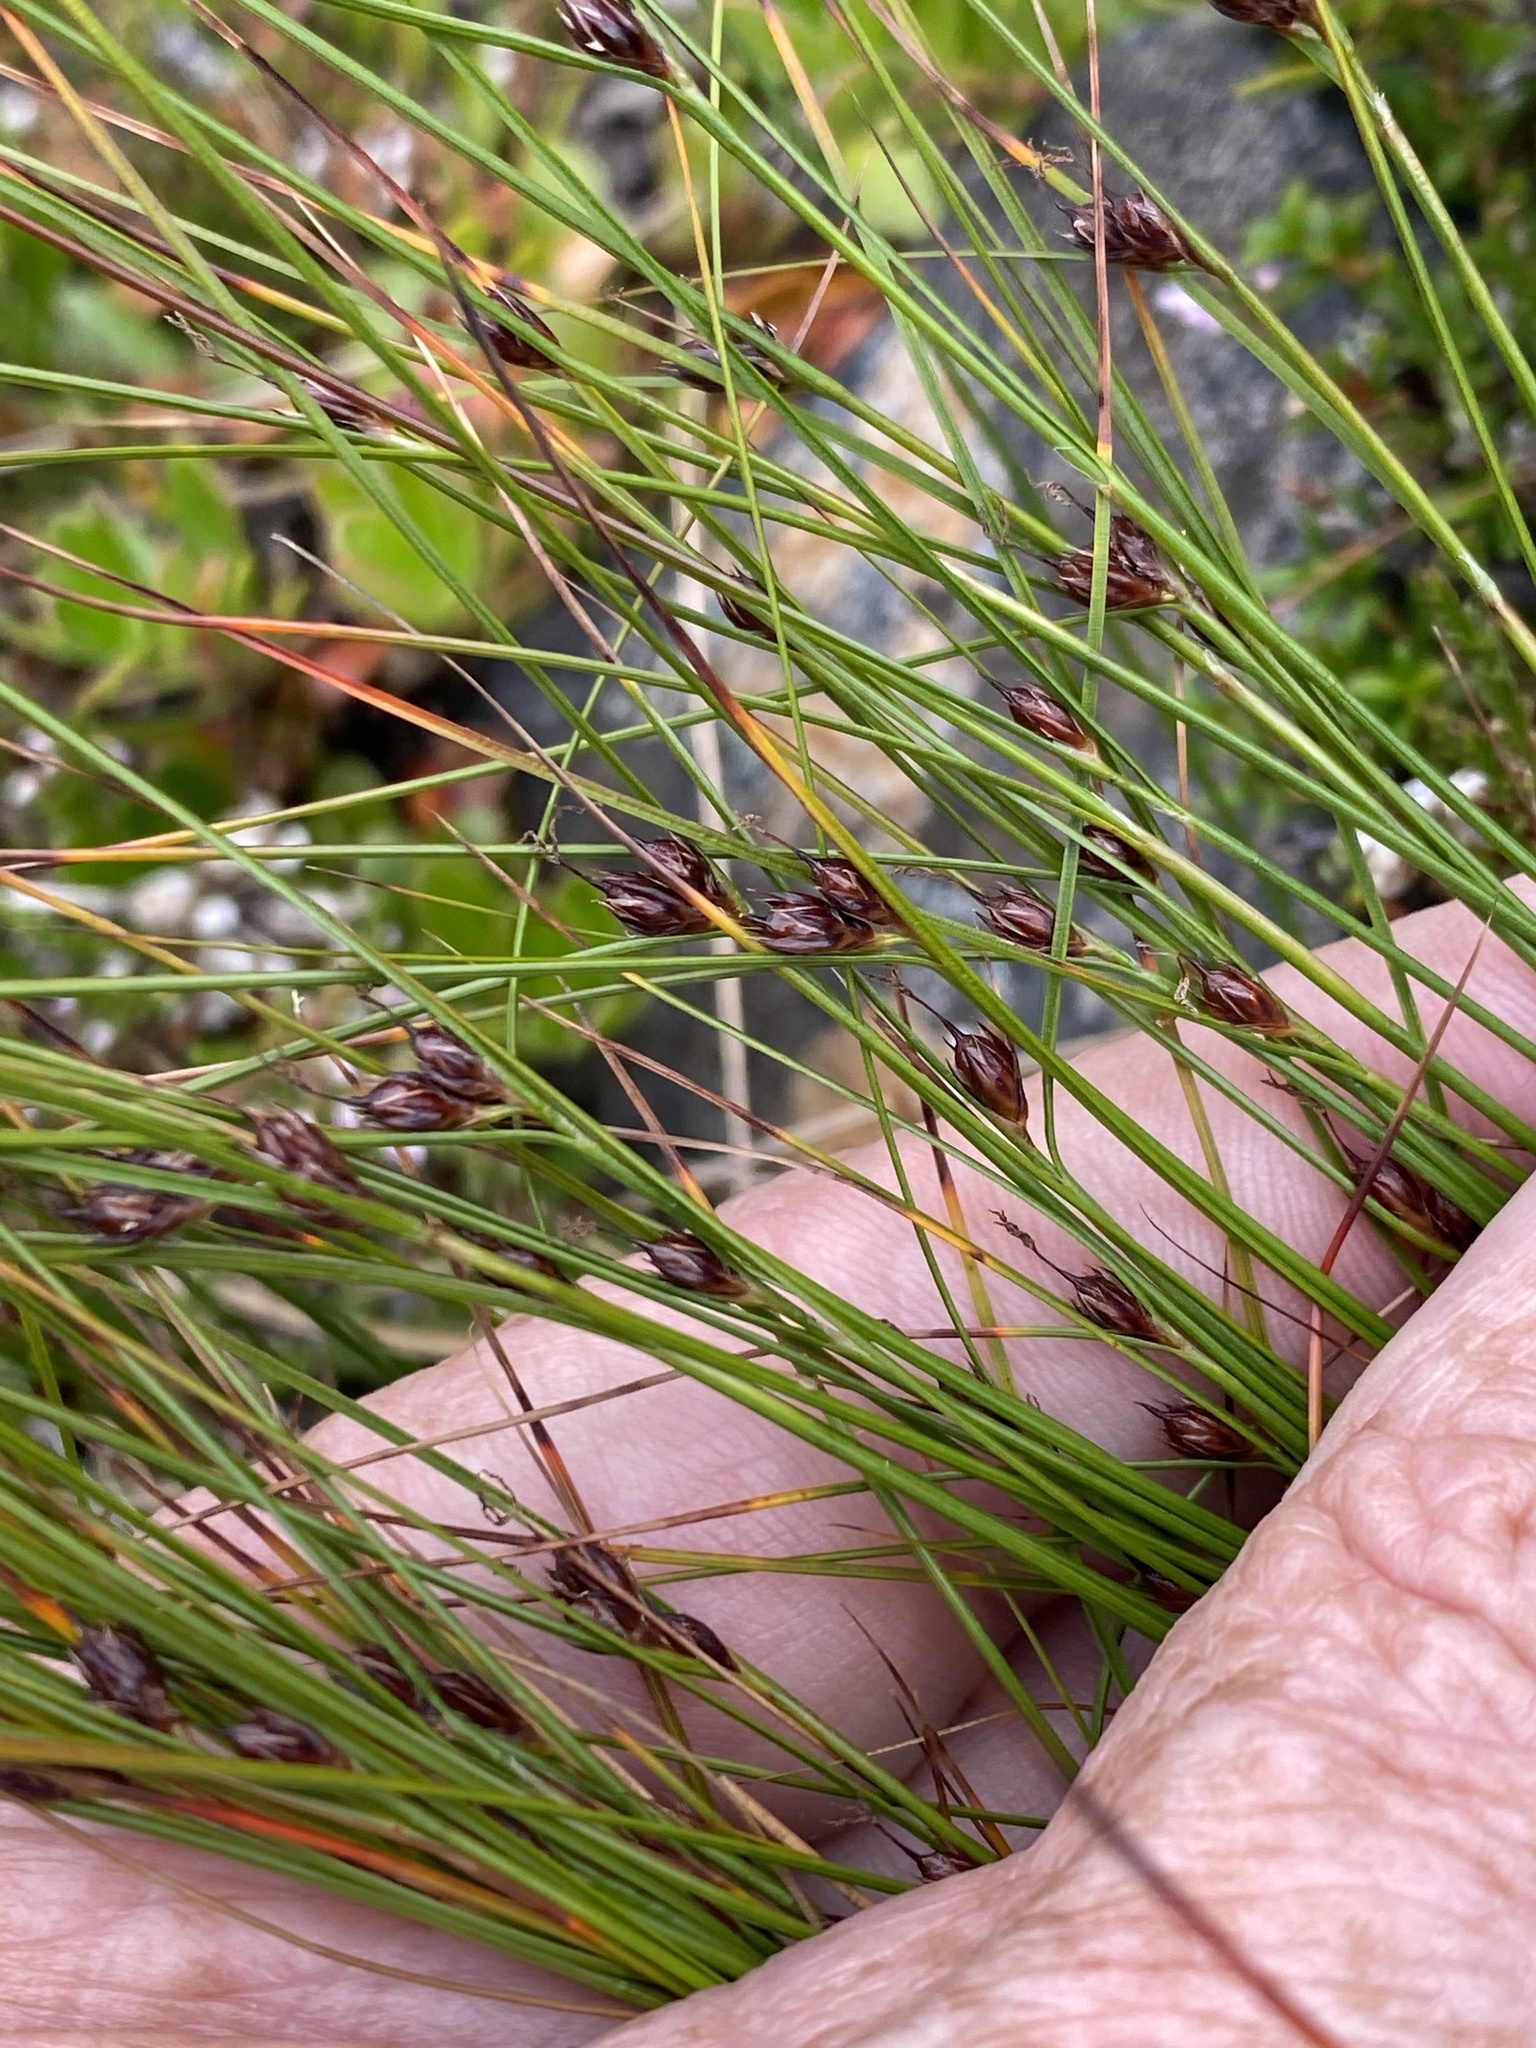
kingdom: Plantae
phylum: Tracheophyta
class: Liliopsida
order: Poales
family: Juncaceae
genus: Oreojuncus
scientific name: Oreojuncus trifidus
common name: Highland rush
